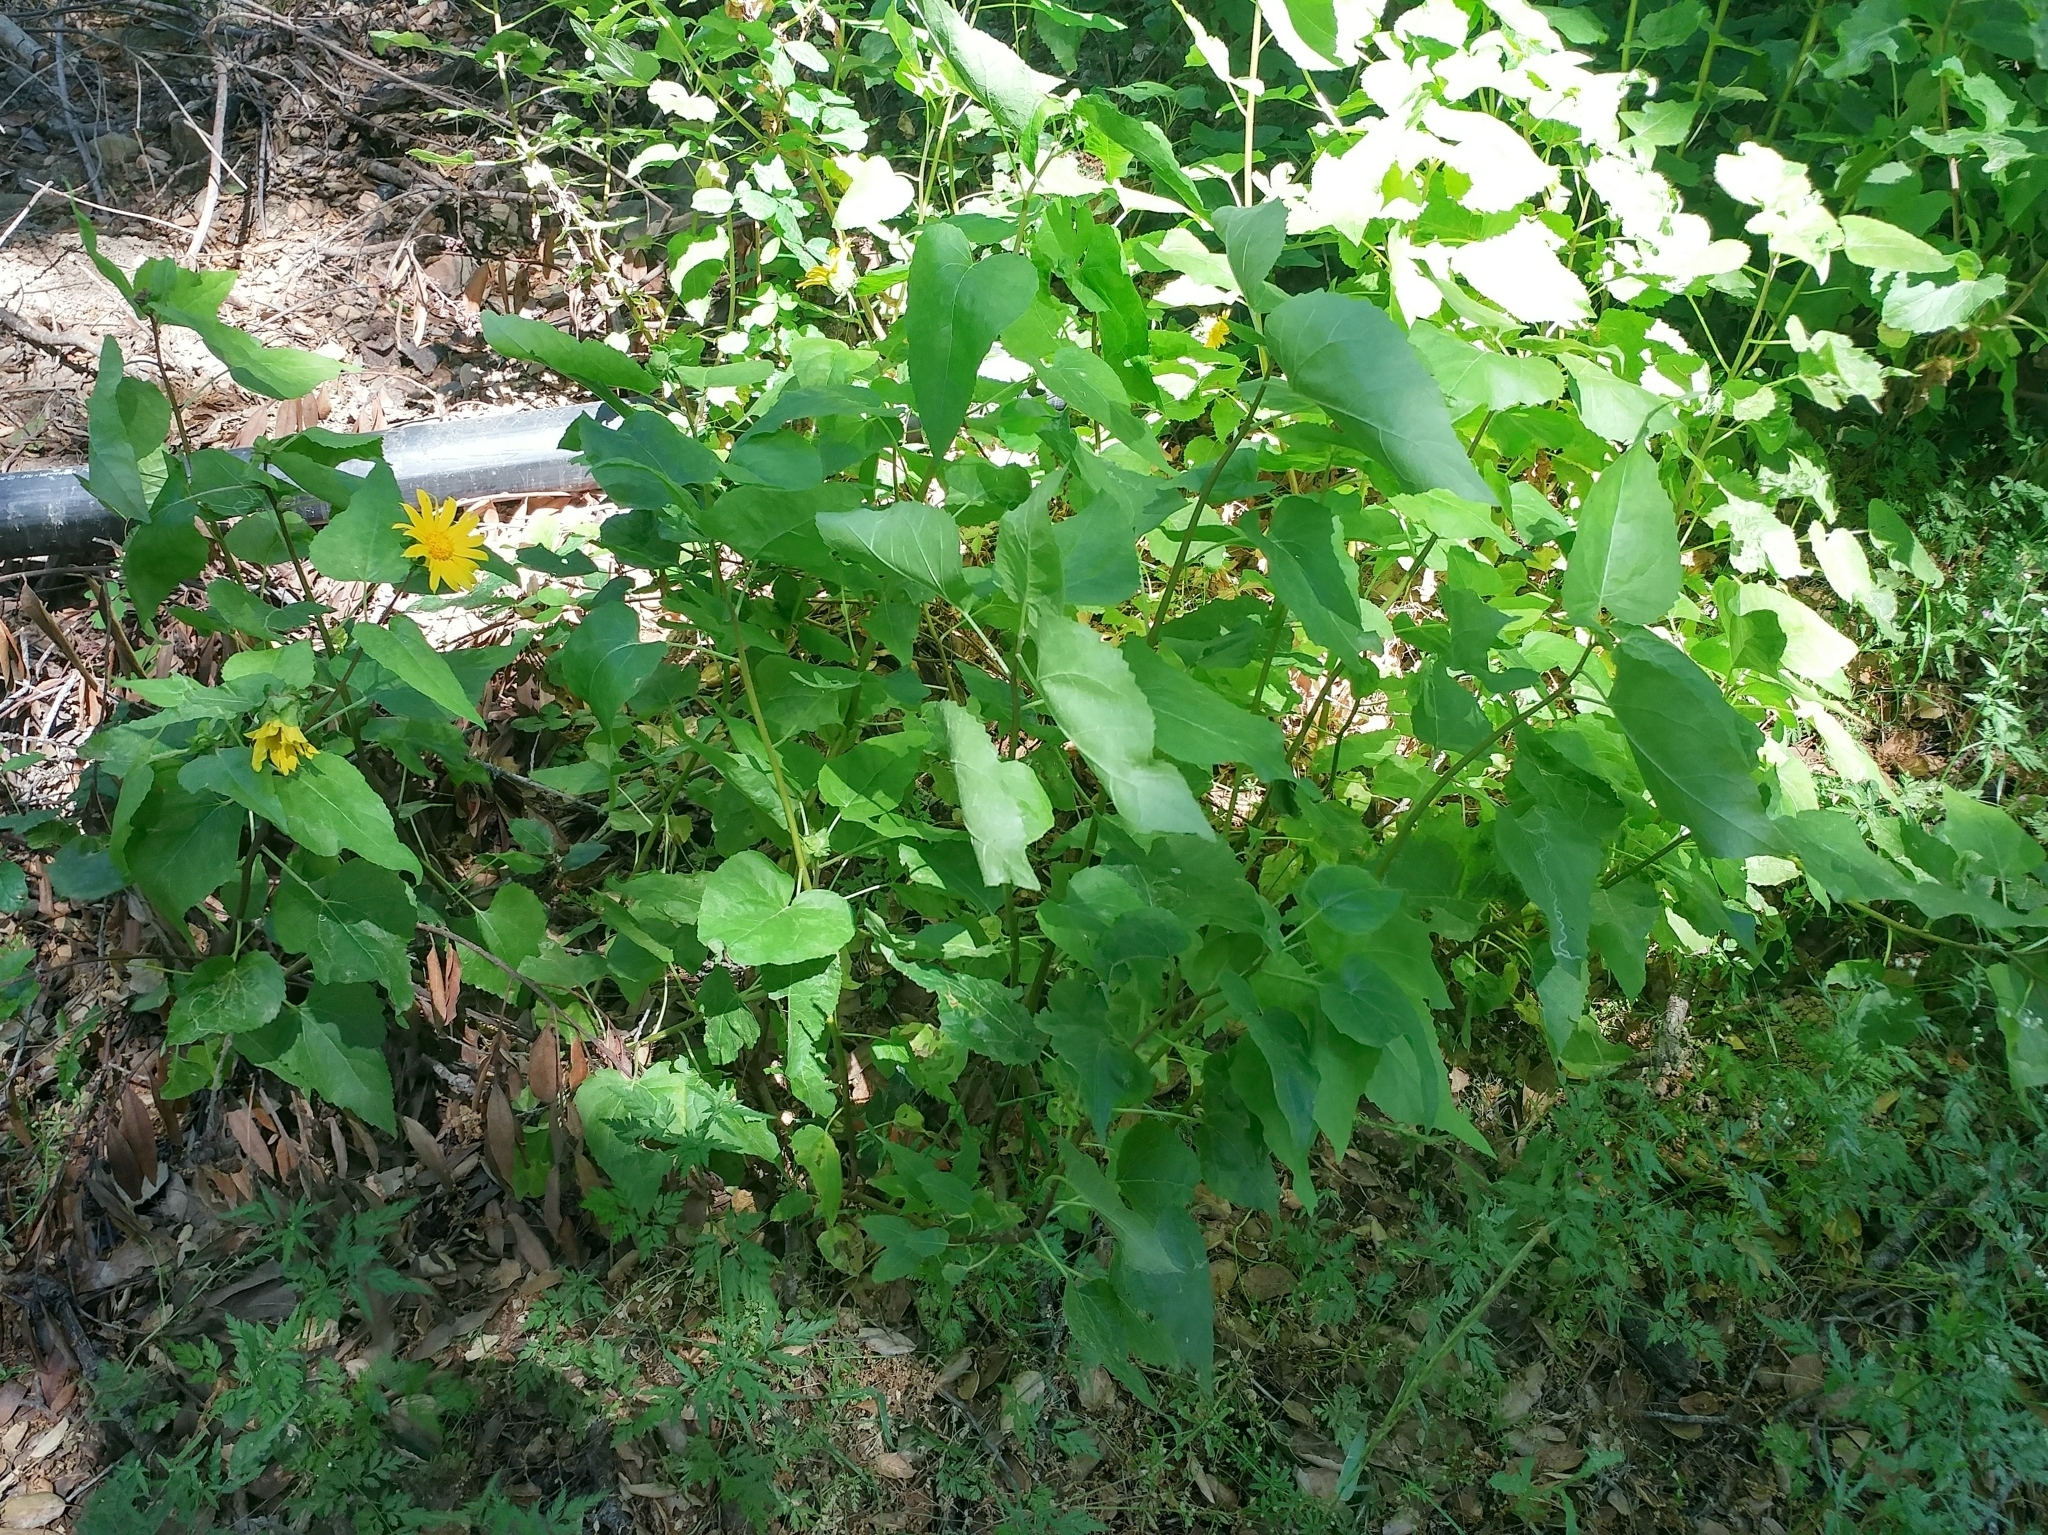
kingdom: Plantae
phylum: Tracheophyta
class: Magnoliopsida
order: Asterales
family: Asteraceae
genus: Venegasia
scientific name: Venegasia carpesioides
